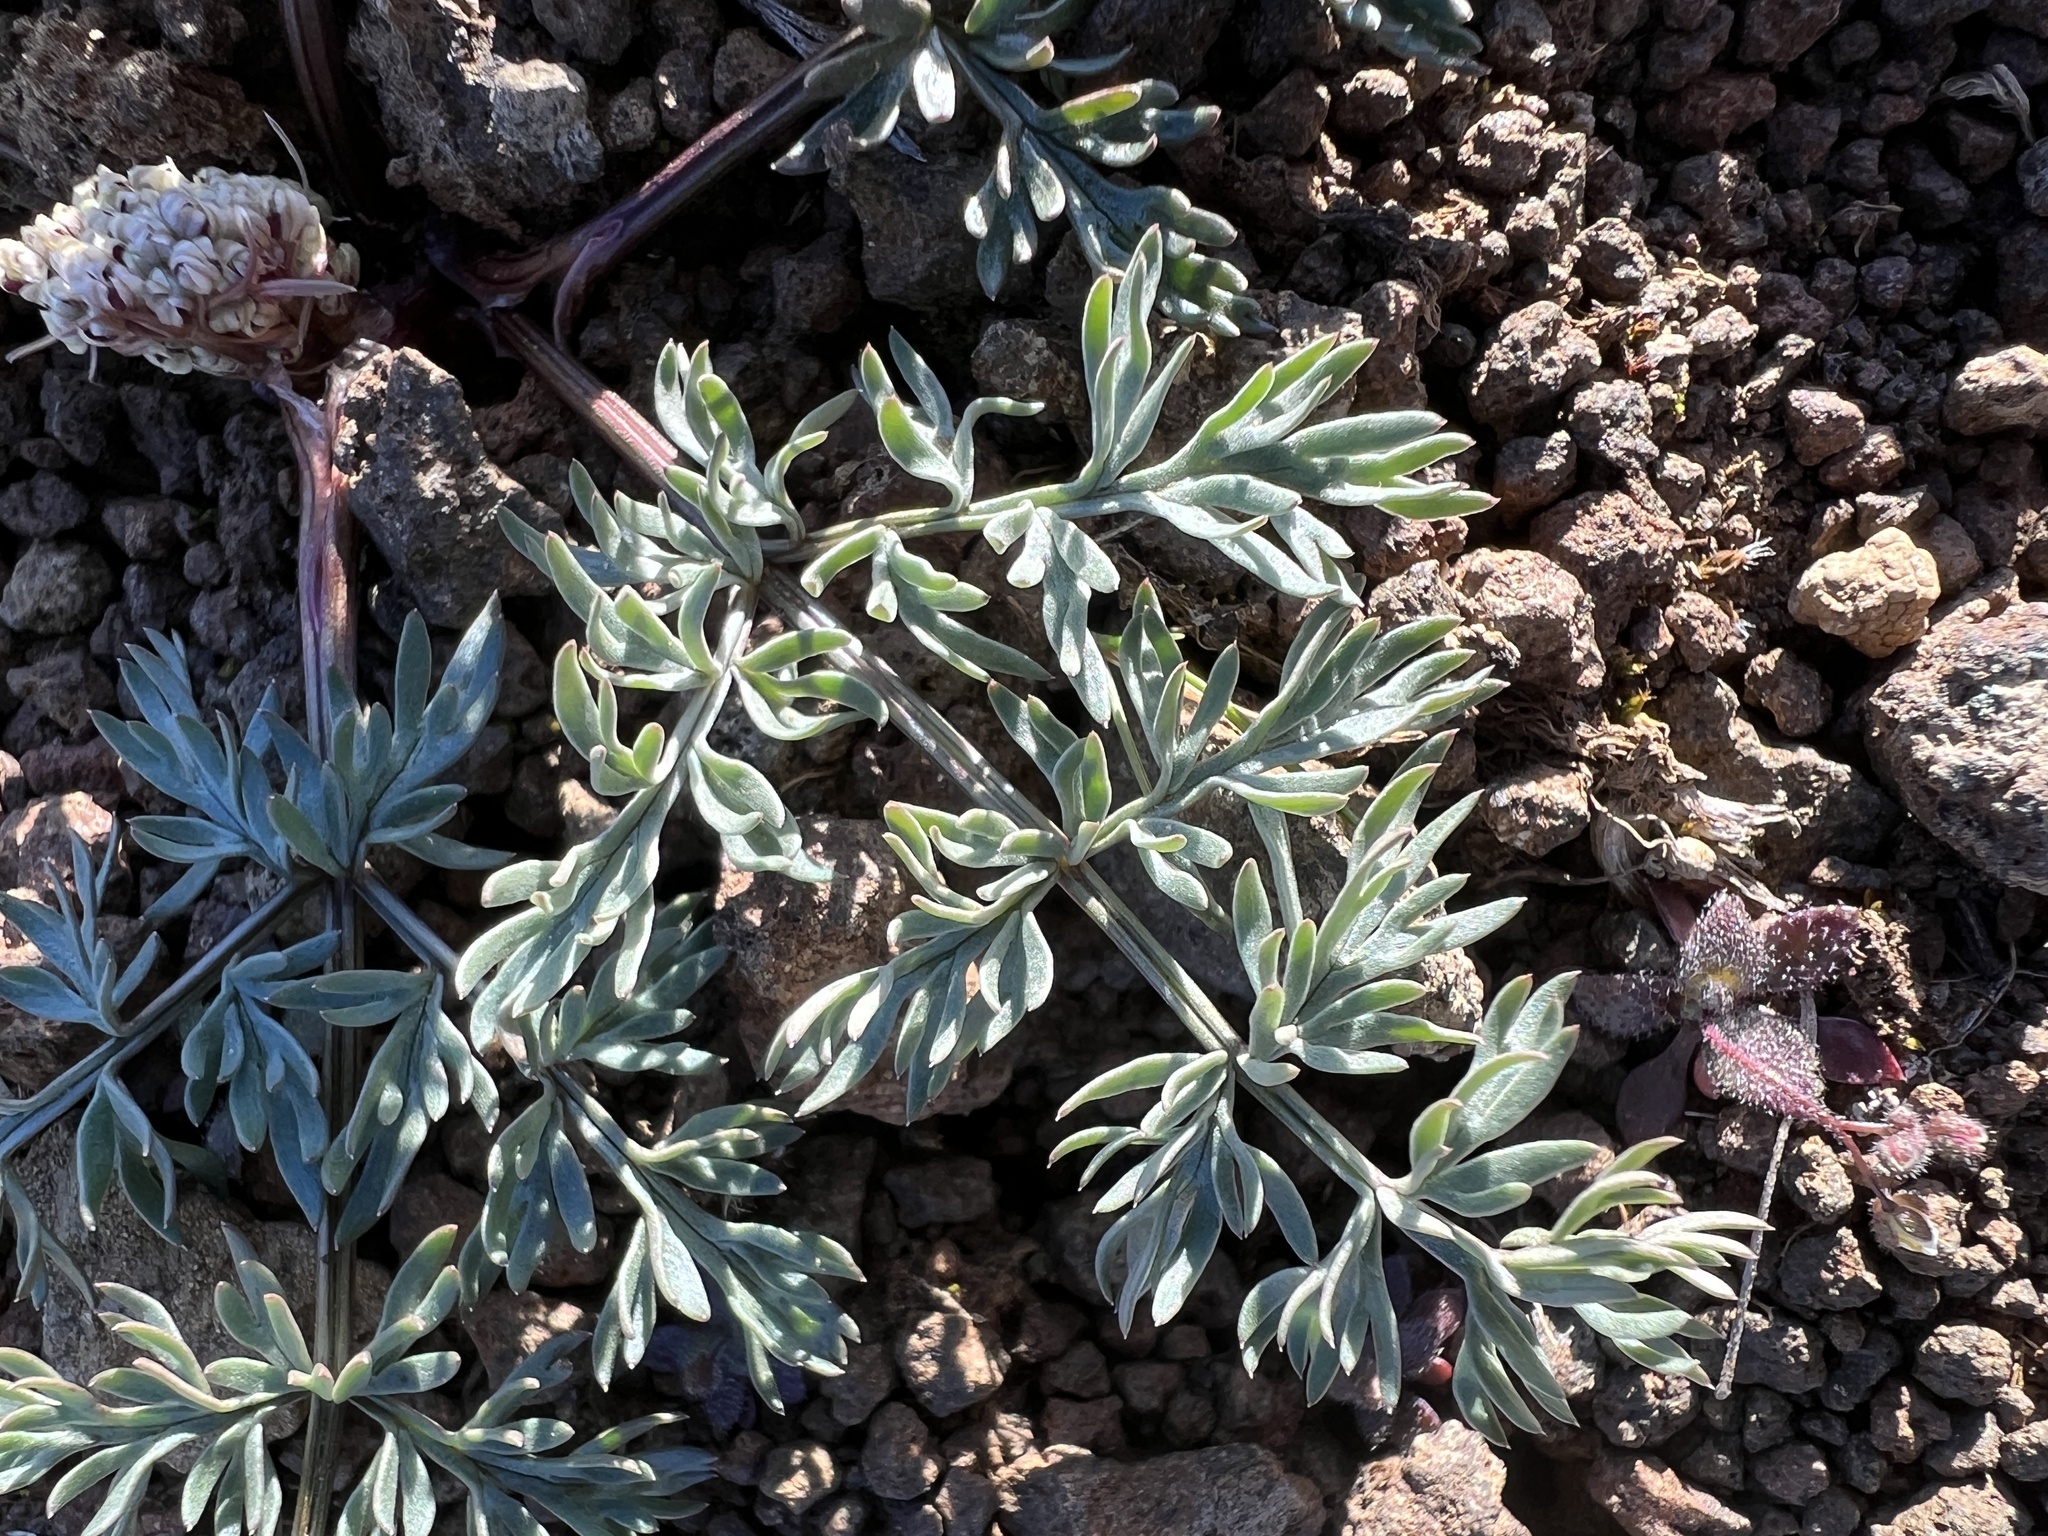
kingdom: Plantae
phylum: Tracheophyta
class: Magnoliopsida
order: Apiales
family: Apiaceae
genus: Lomatium
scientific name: Lomatium canbyi
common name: Chucklusa
